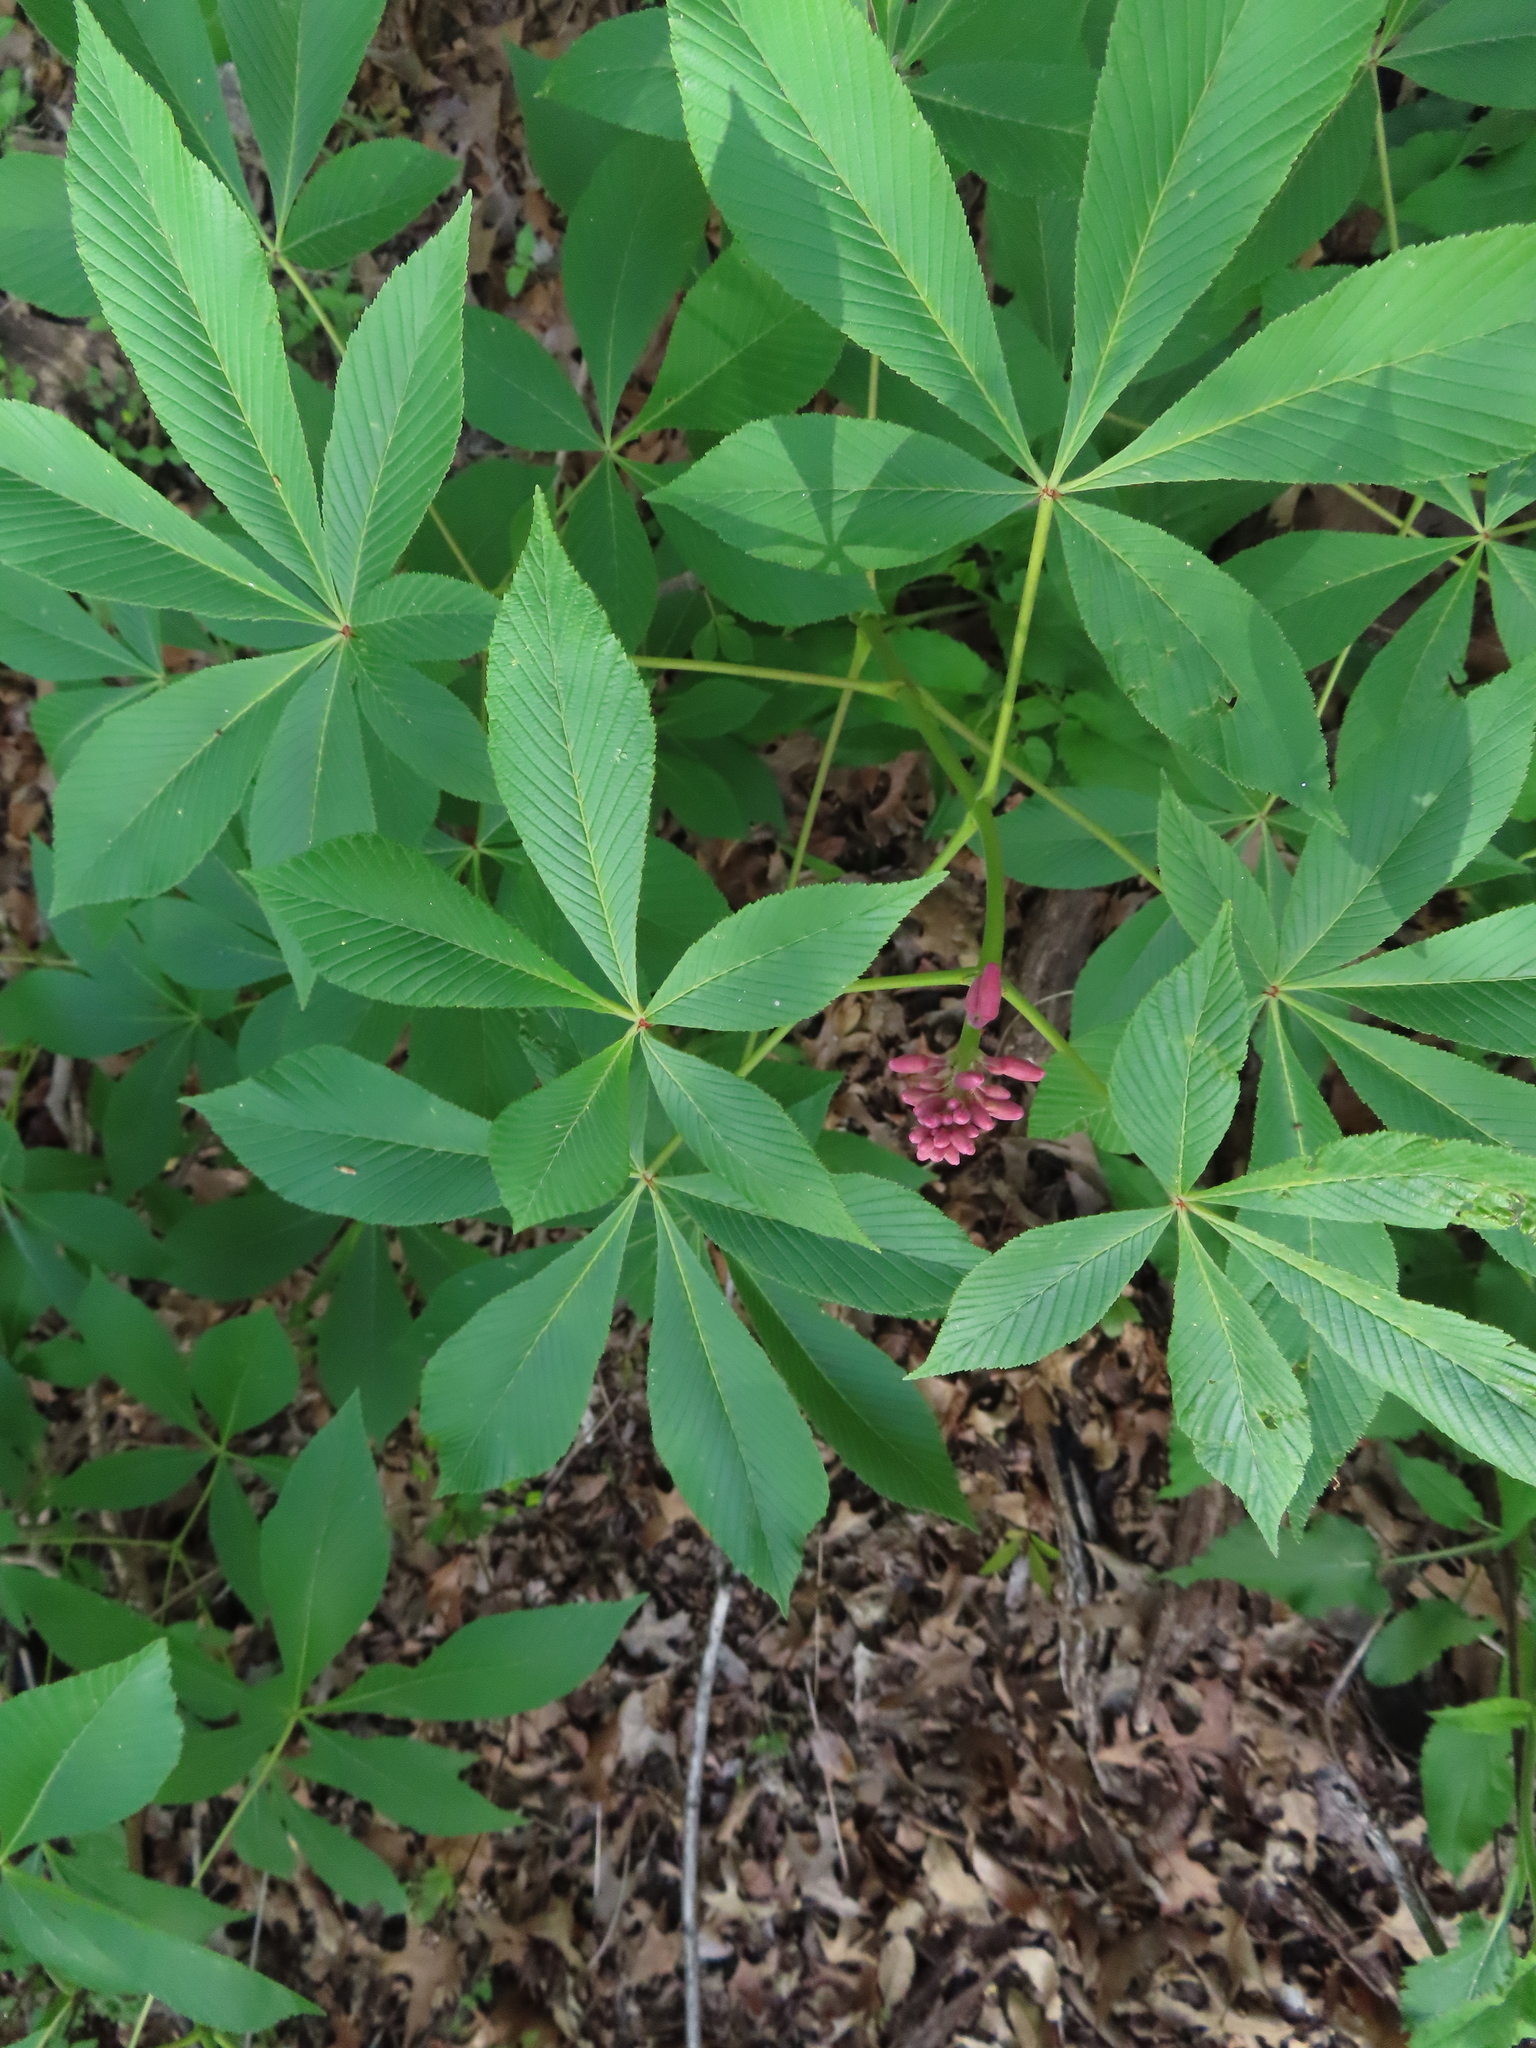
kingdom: Plantae
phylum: Tracheophyta
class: Magnoliopsida
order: Sapindales
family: Sapindaceae
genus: Aesculus
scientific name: Aesculus pavia
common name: Red buckeye
